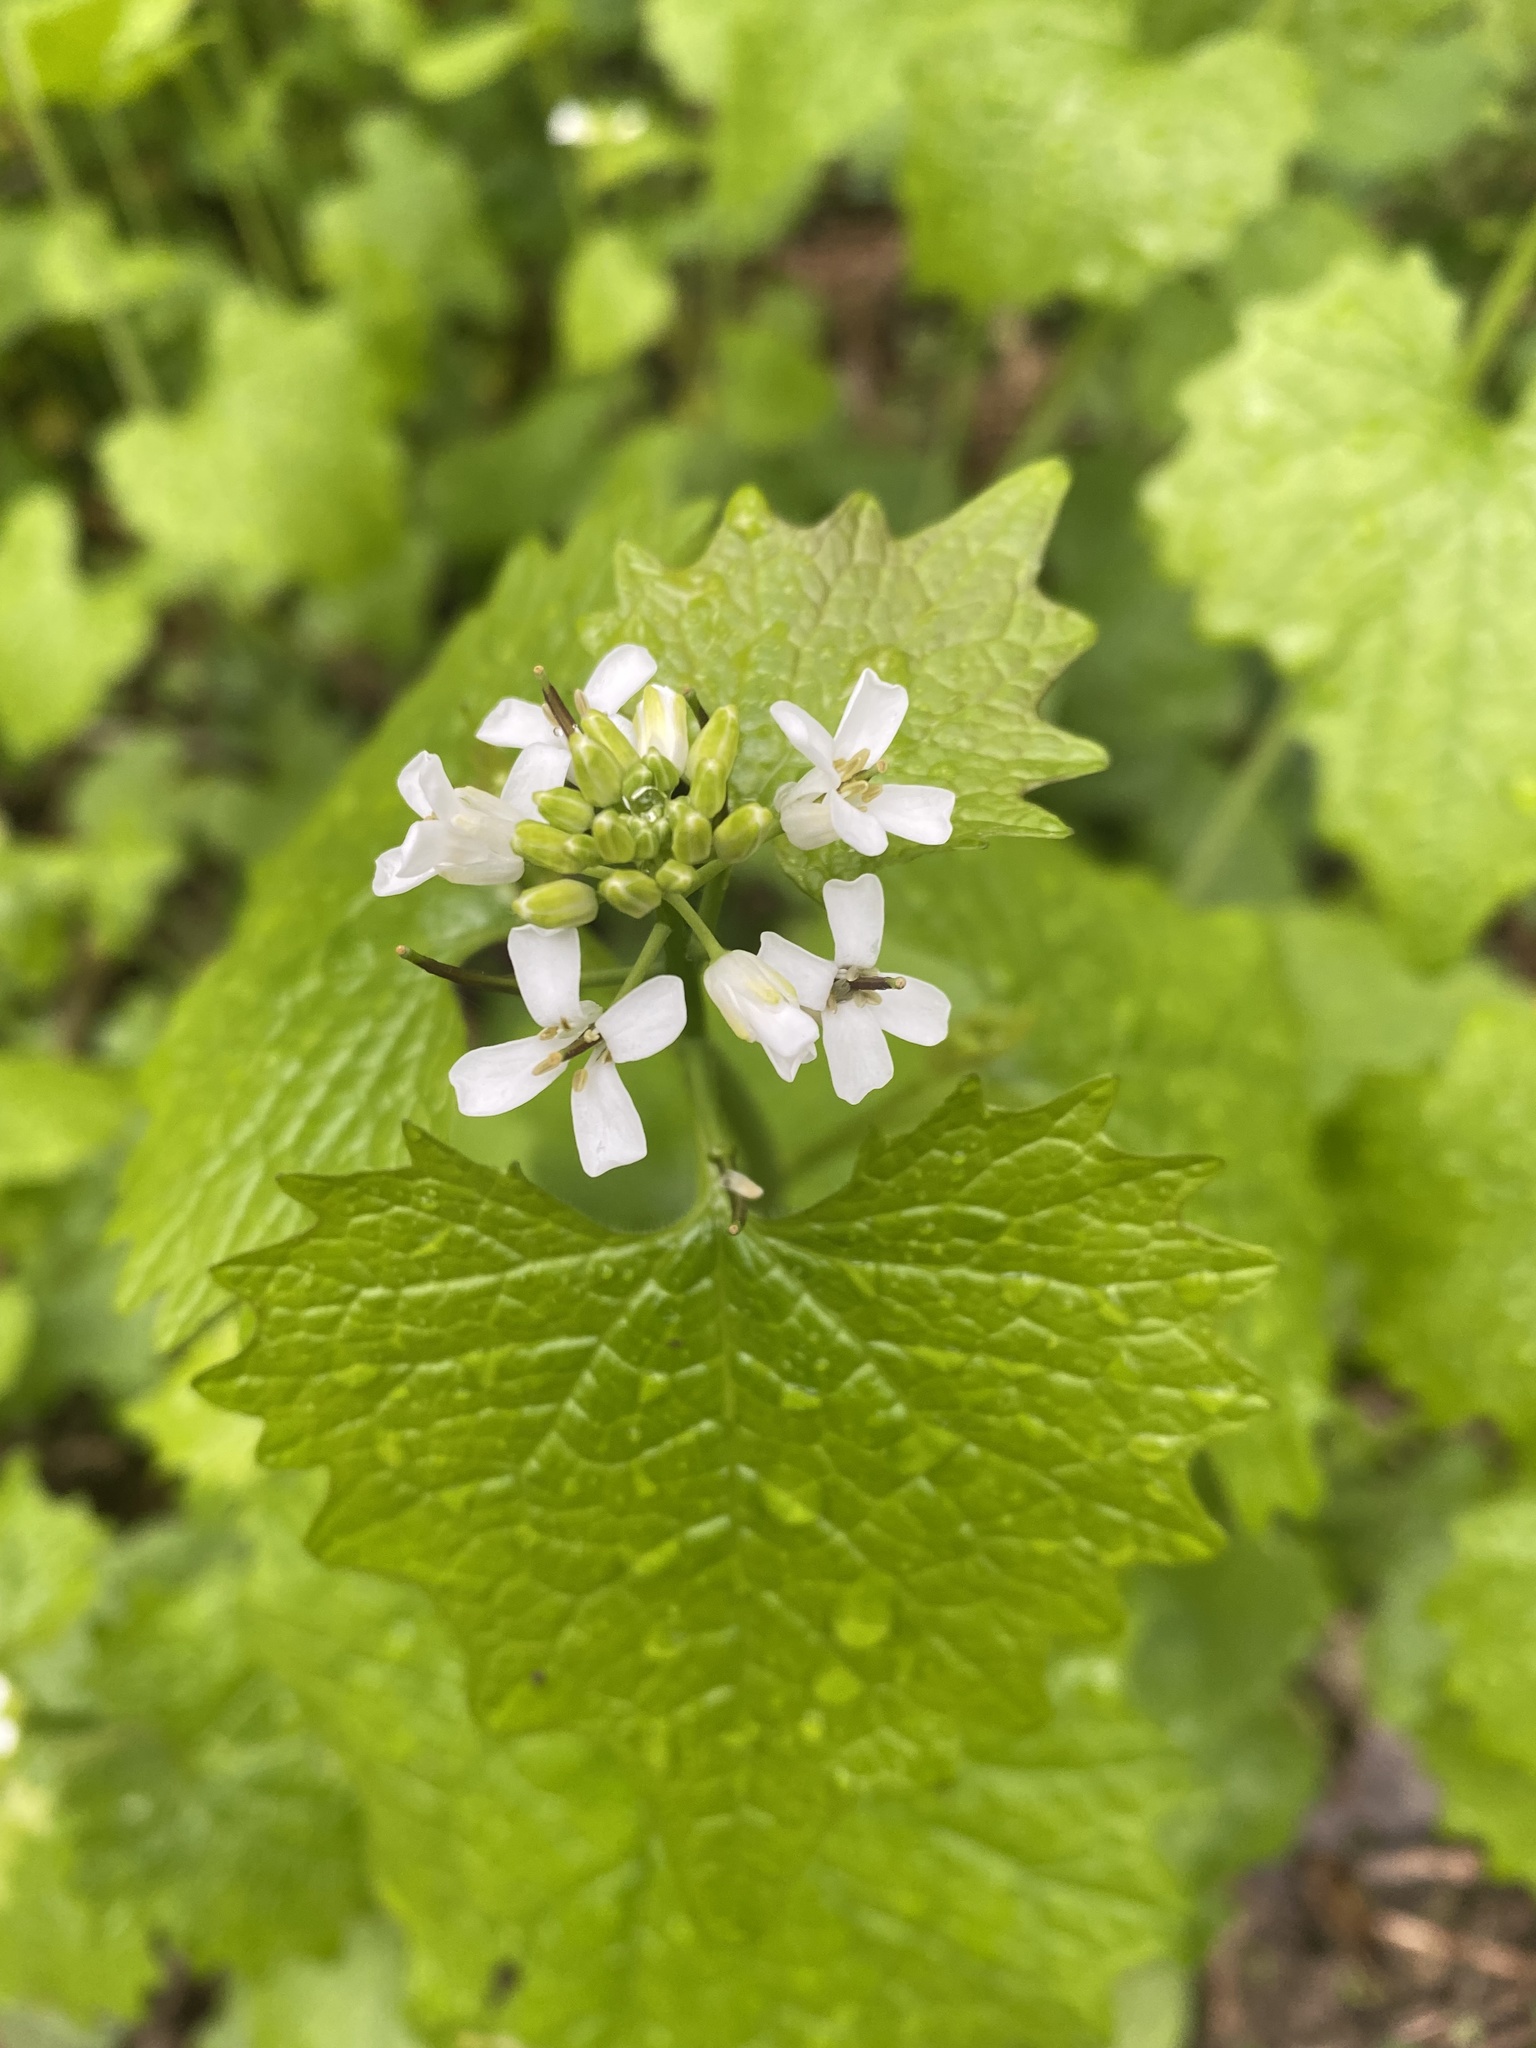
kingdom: Plantae
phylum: Tracheophyta
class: Magnoliopsida
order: Brassicales
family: Brassicaceae
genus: Alliaria
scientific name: Alliaria petiolata
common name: Garlic mustard
